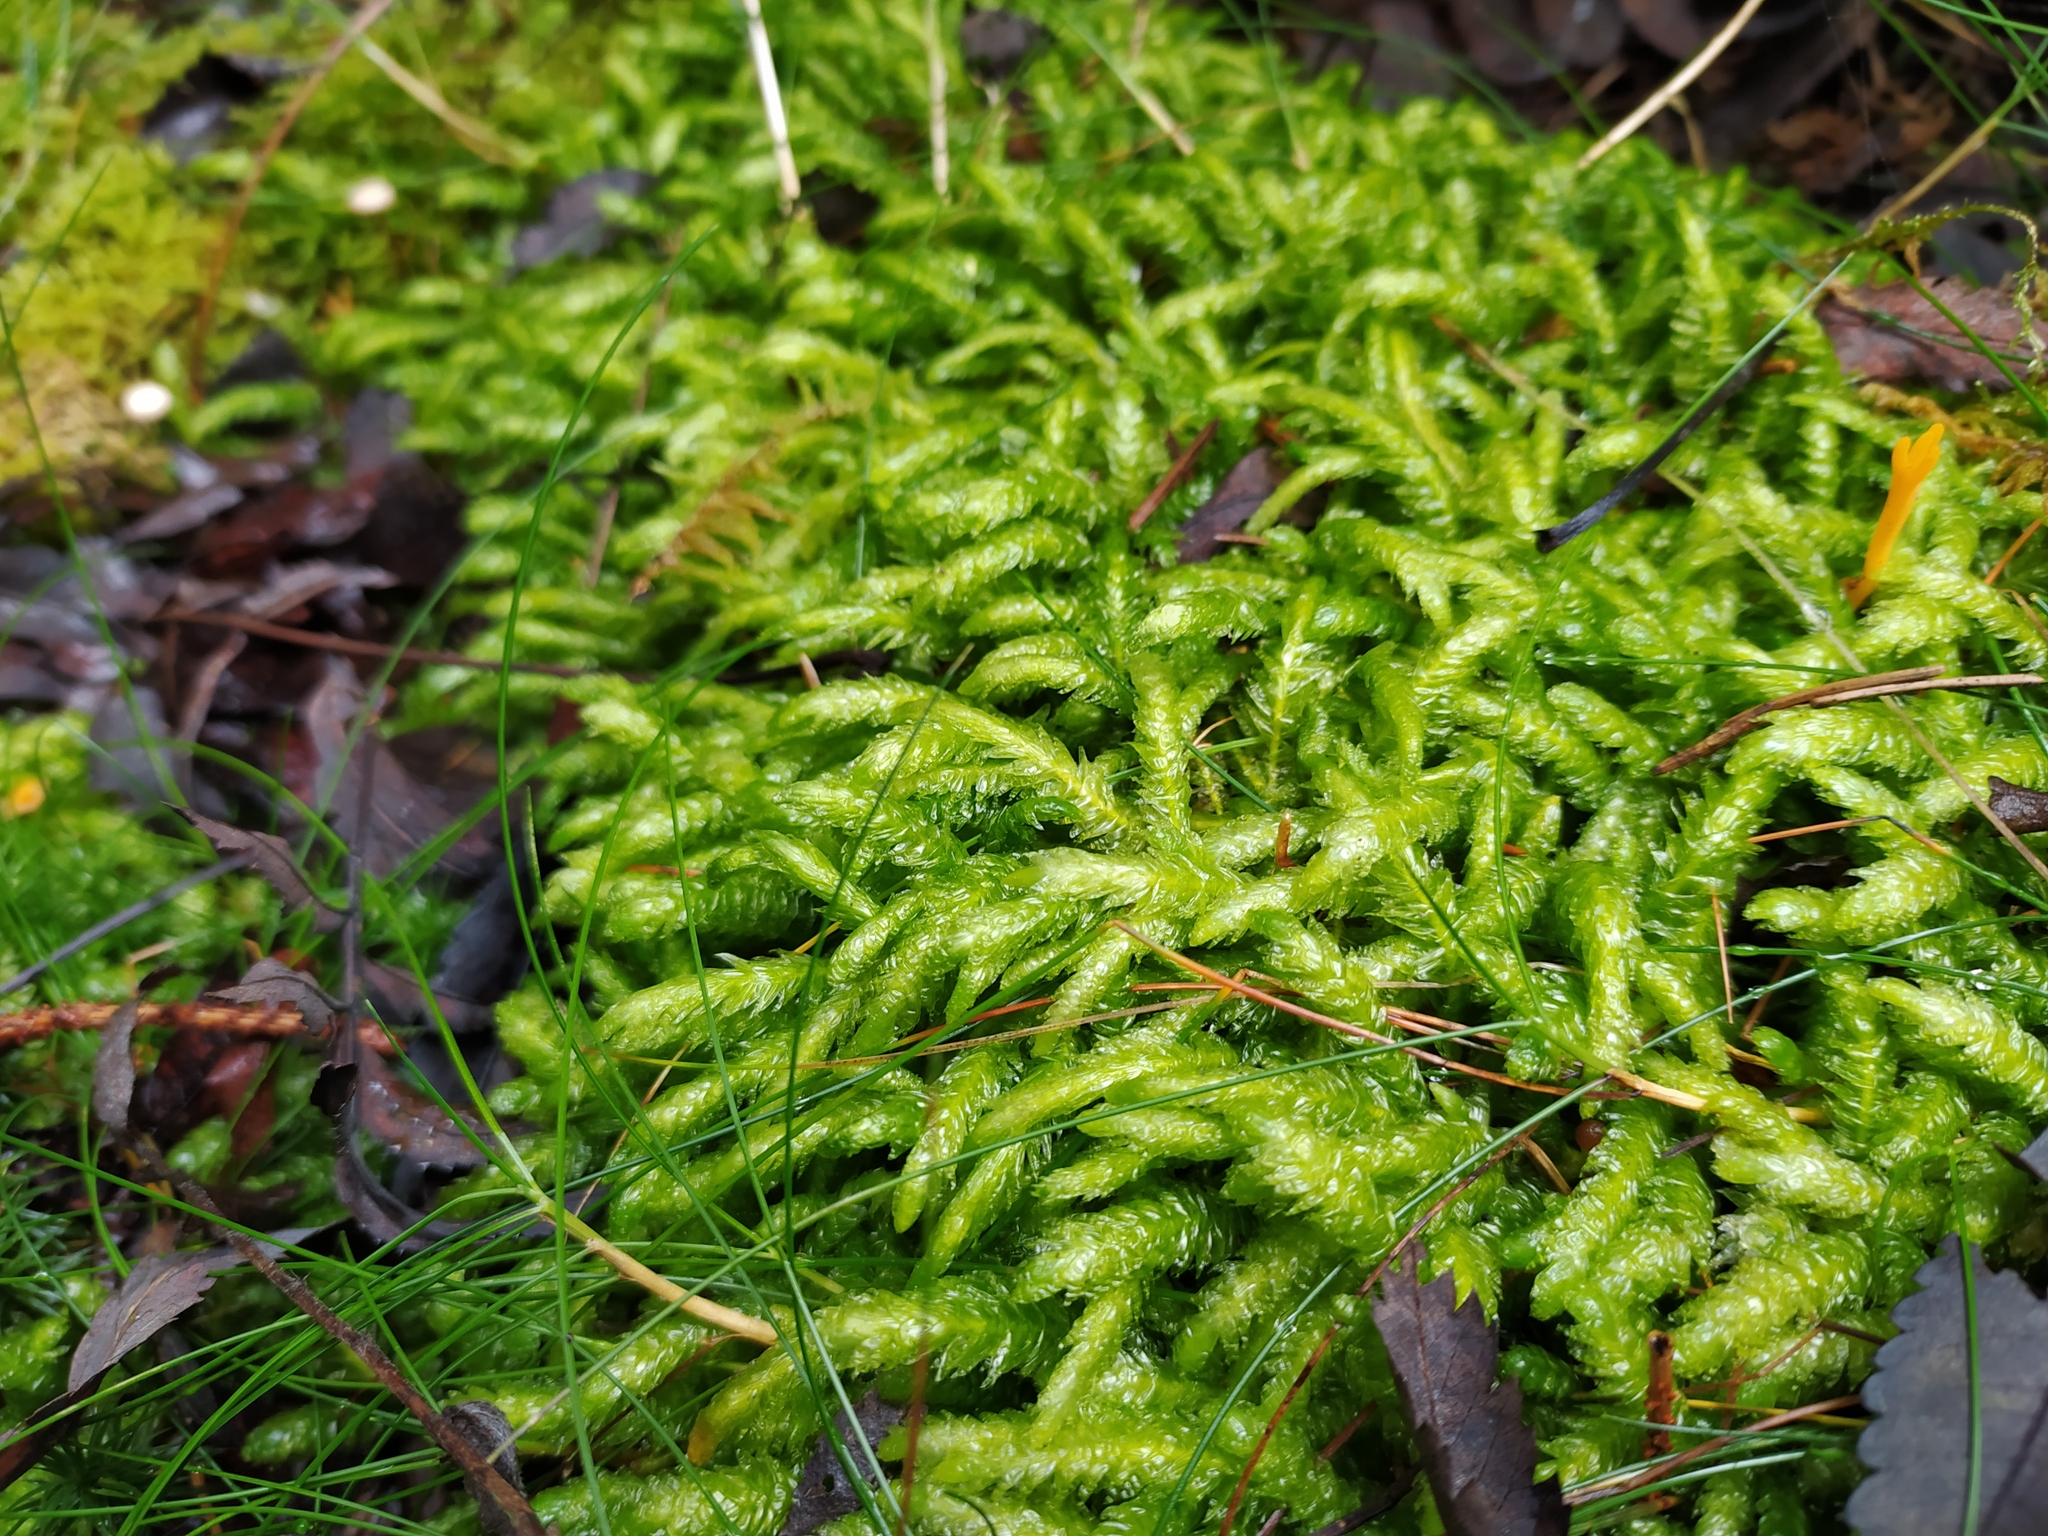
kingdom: Plantae
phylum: Bryophyta
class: Bryopsida
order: Hypnales
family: Plagiotheciaceae
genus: Plagiothecium
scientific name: Plagiothecium undulatum
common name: Waved silk-moss
